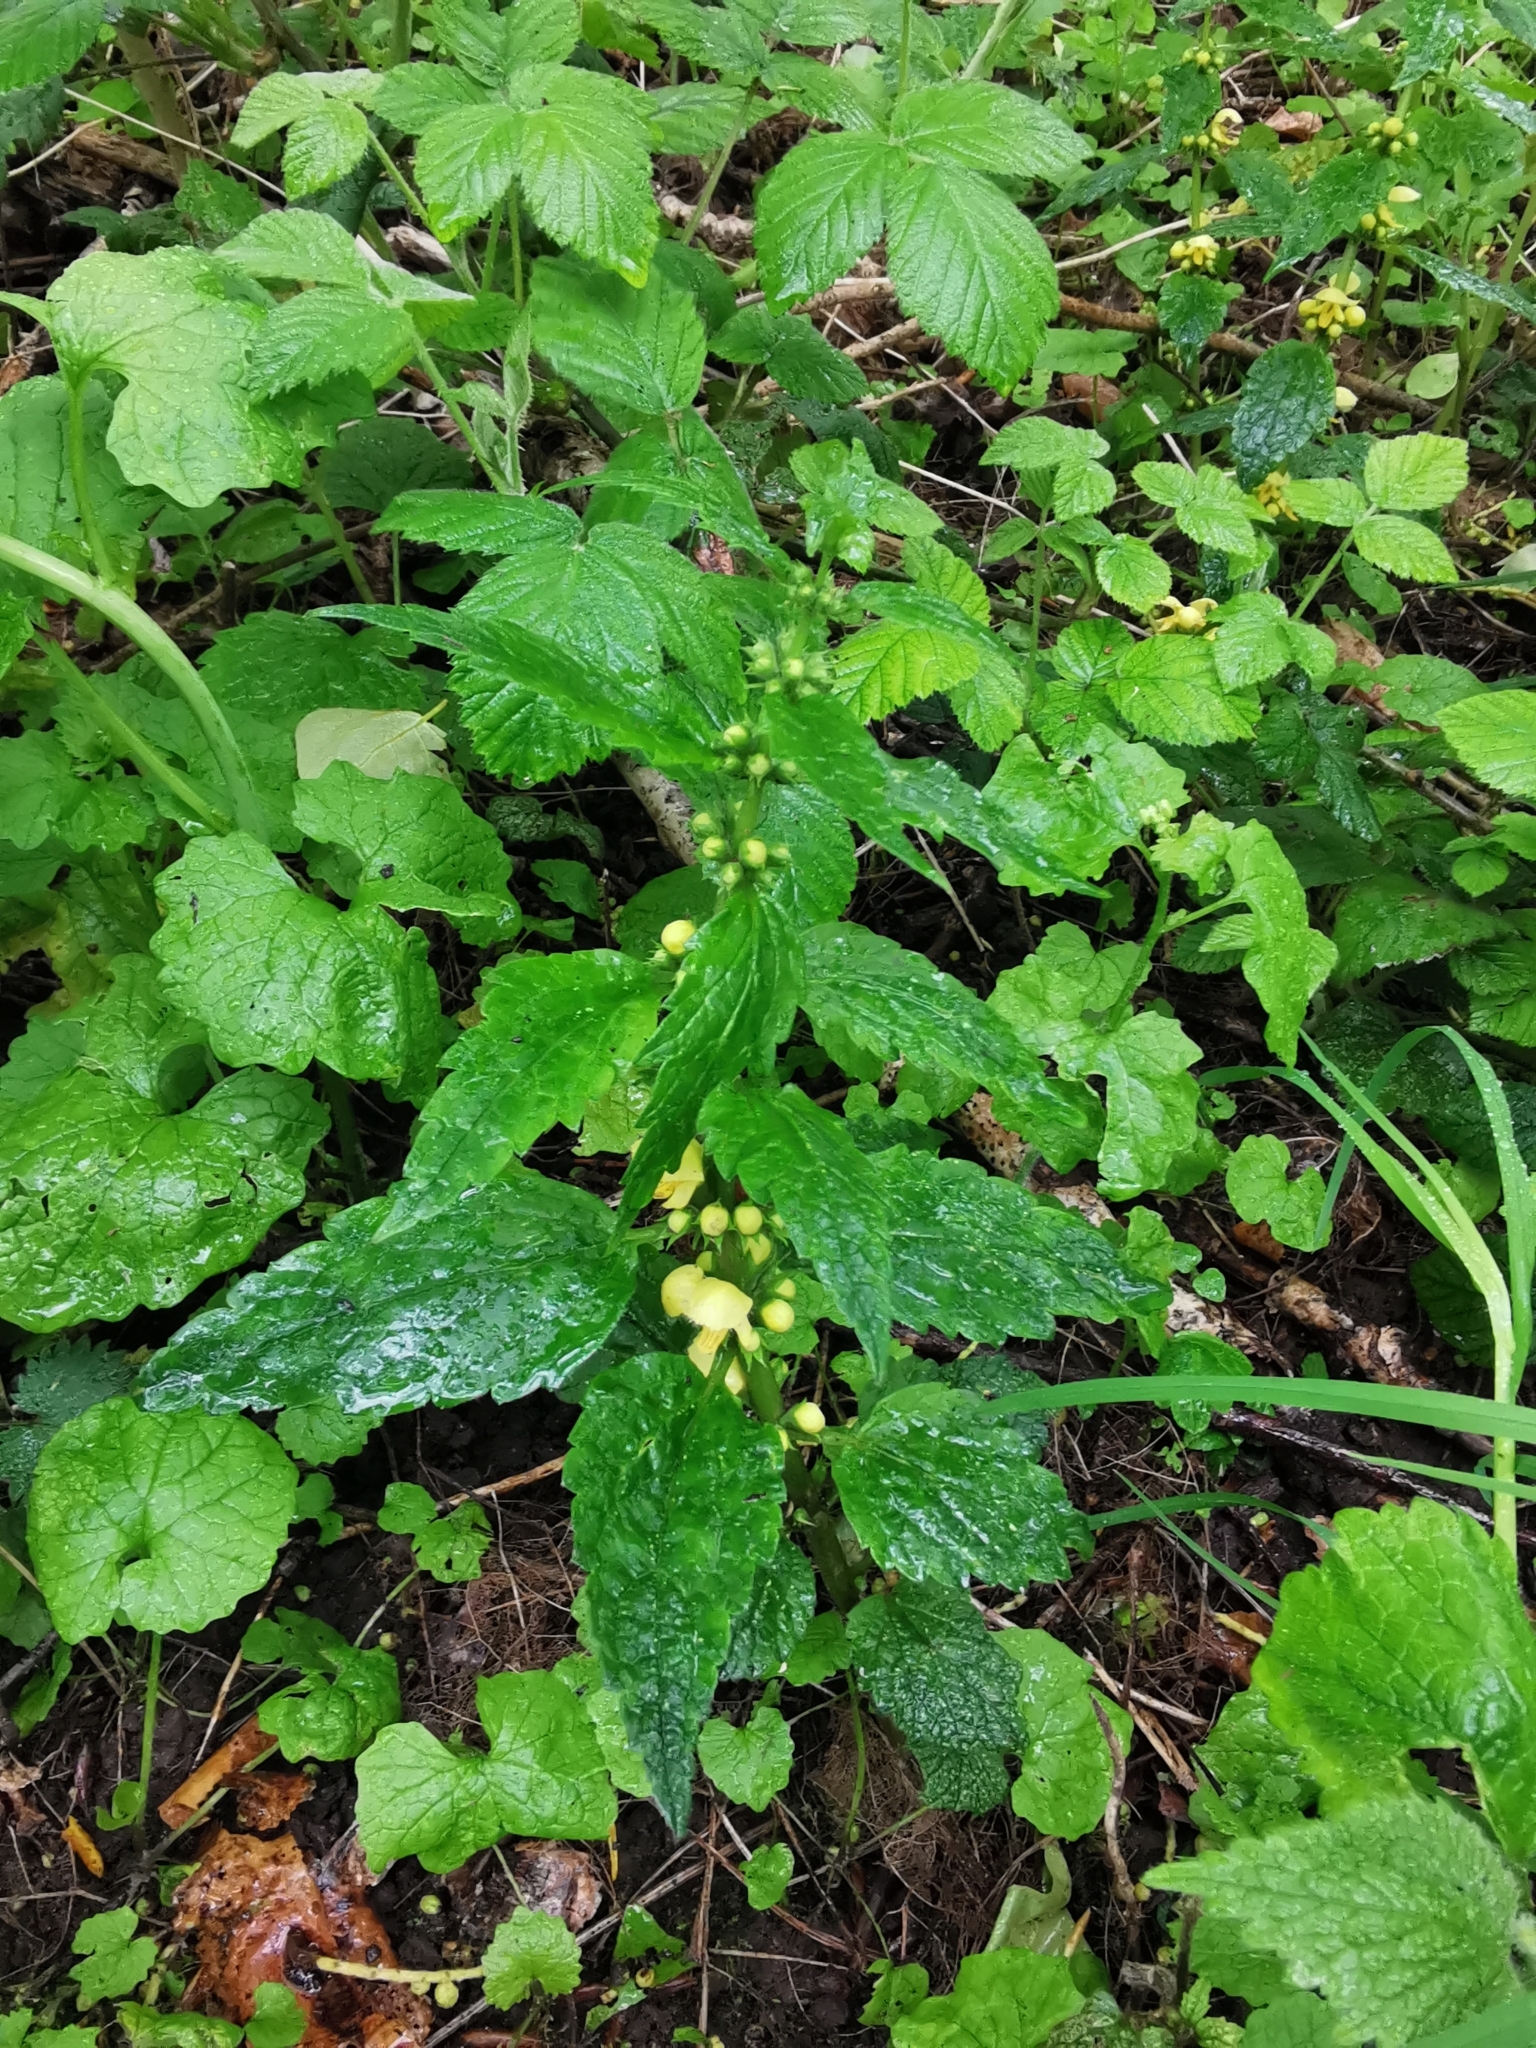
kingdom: Plantae
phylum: Tracheophyta
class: Magnoliopsida
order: Lamiales
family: Lamiaceae
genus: Lamium
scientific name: Lamium galeobdolon
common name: Yellow archangel
